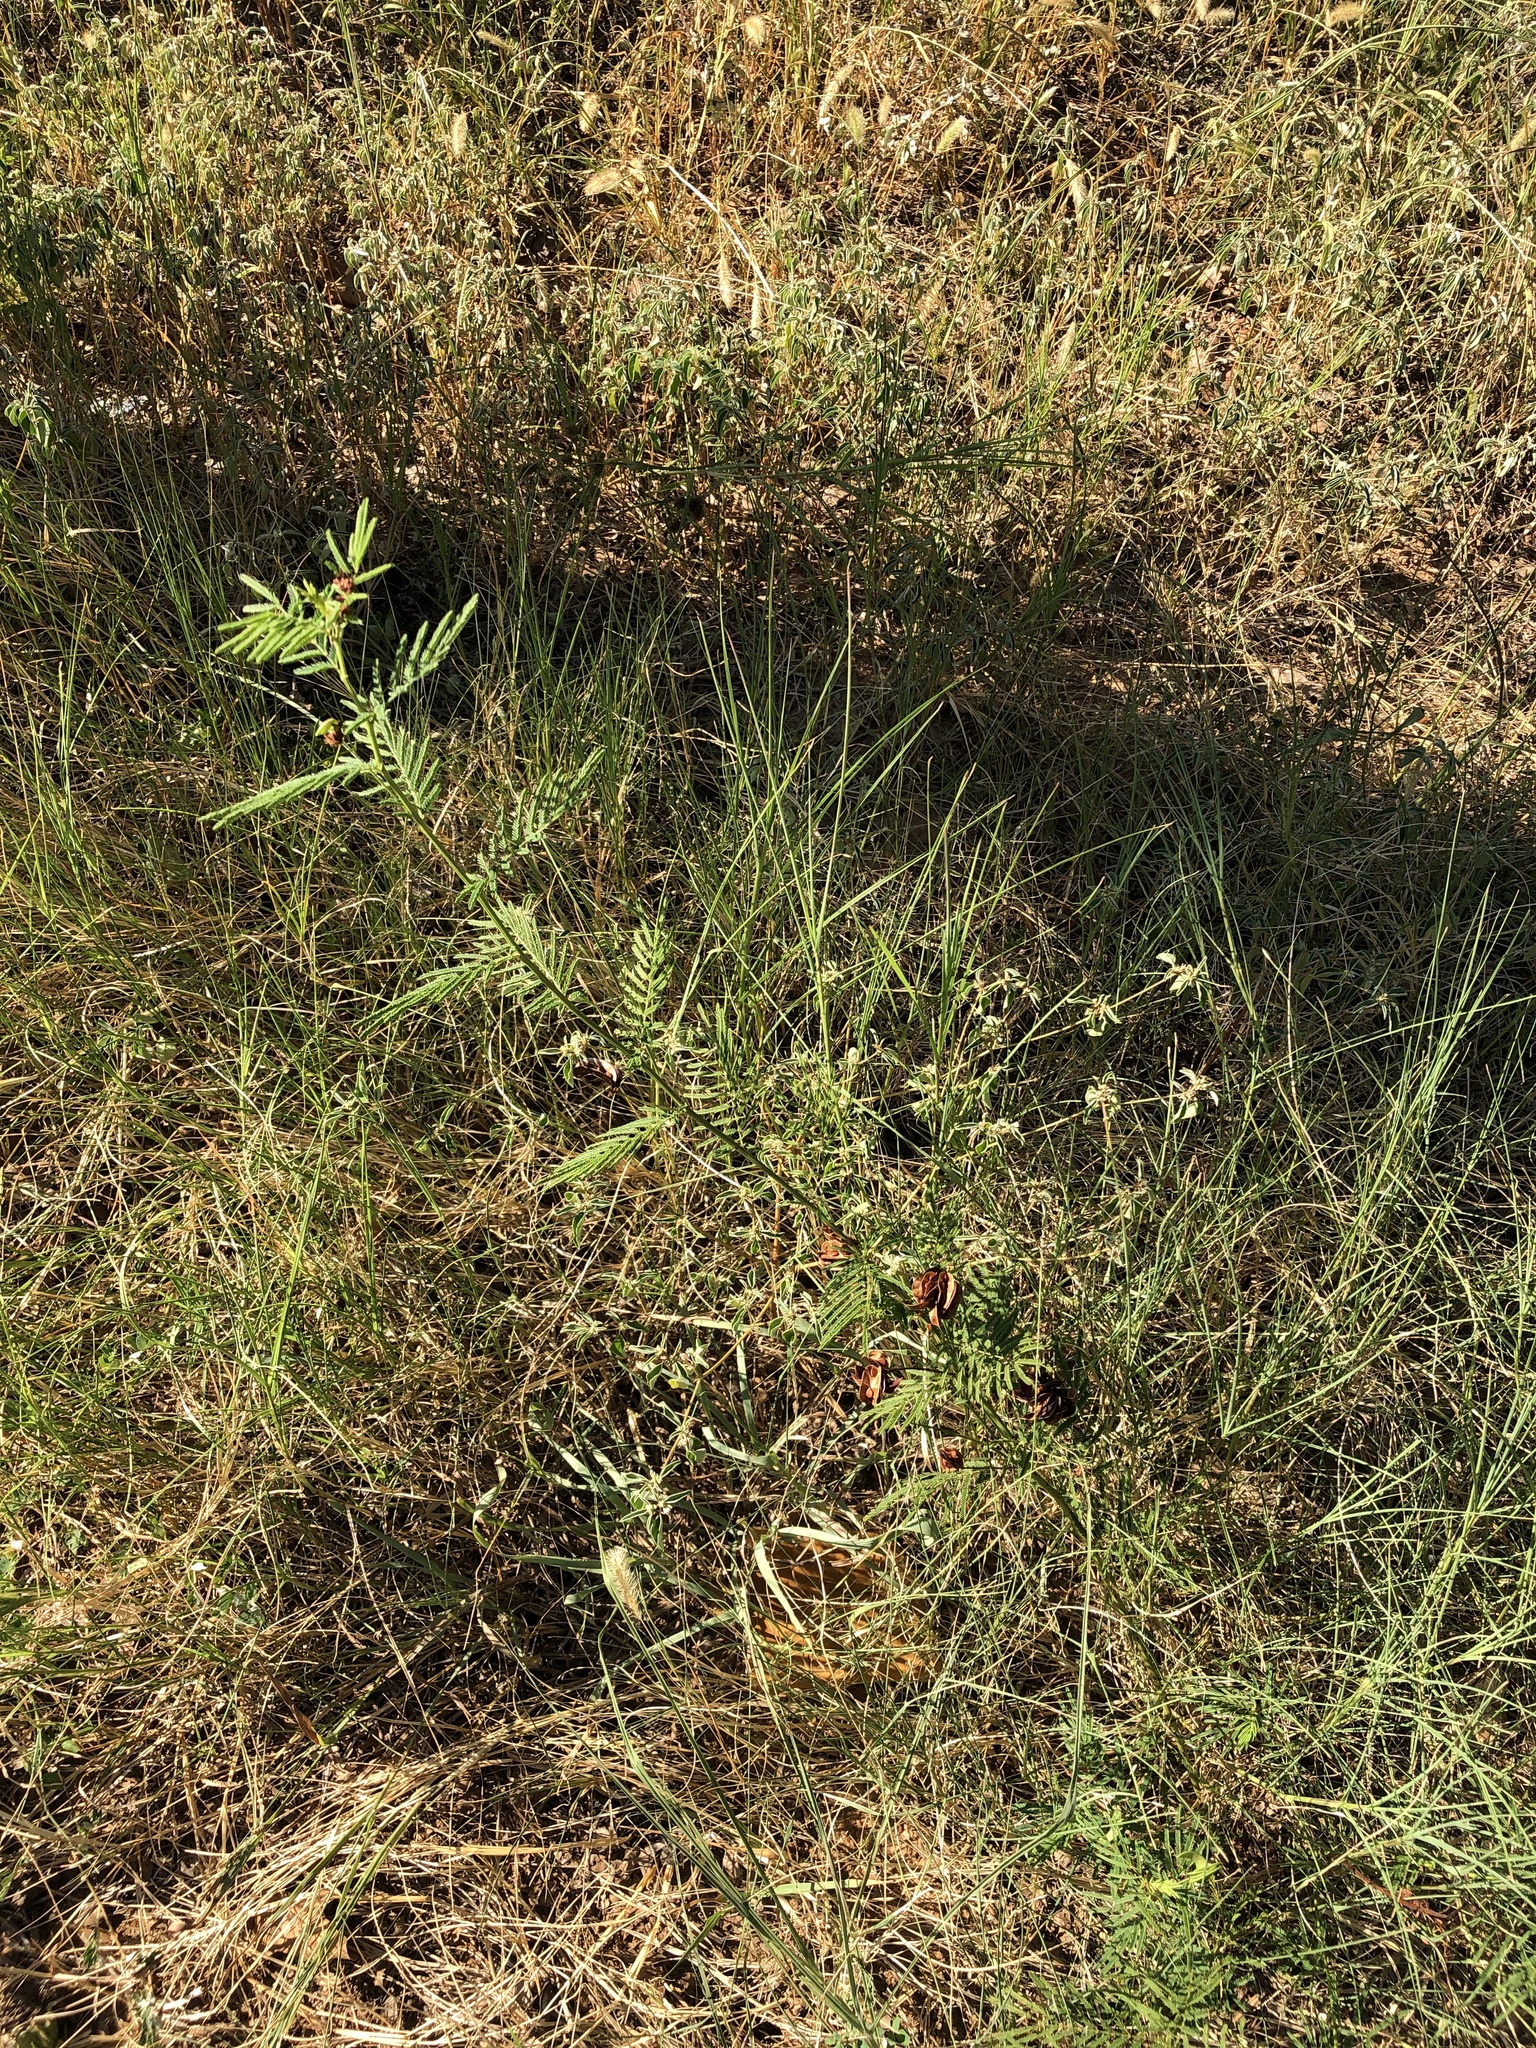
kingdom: Plantae
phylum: Tracheophyta
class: Magnoliopsida
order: Fabales
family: Fabaceae
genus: Desmanthus
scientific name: Desmanthus illinoensis
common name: Illinois bundle-flower
